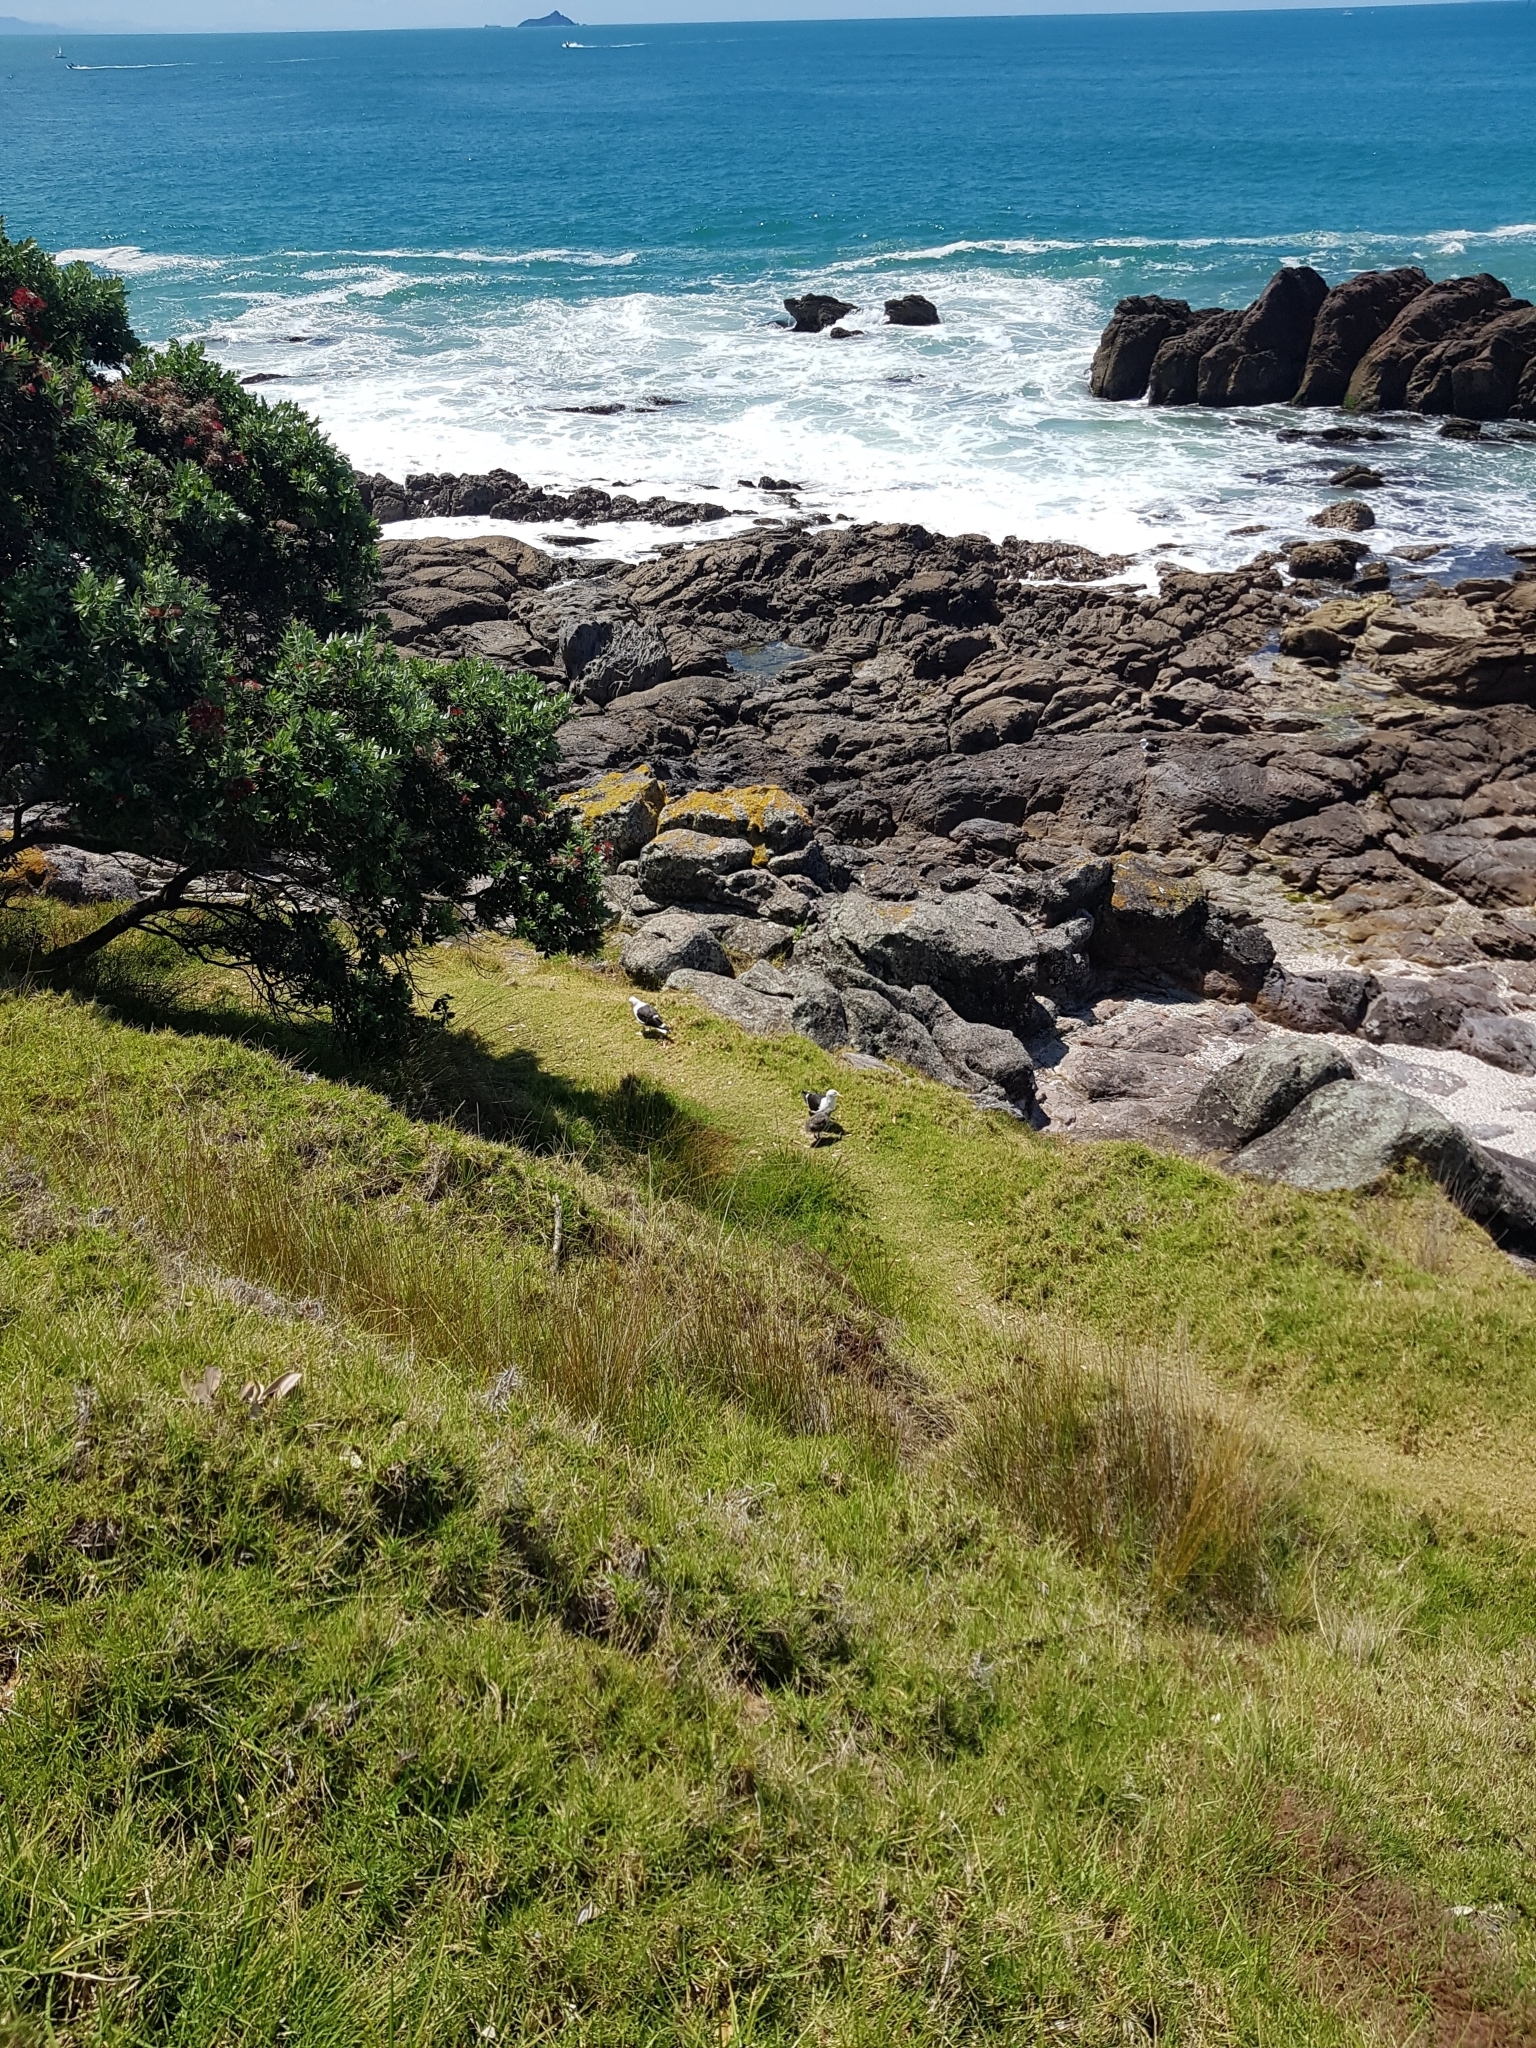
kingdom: Animalia
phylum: Chordata
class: Aves
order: Charadriiformes
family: Laridae
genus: Larus
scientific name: Larus dominicanus
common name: Kelp gull
